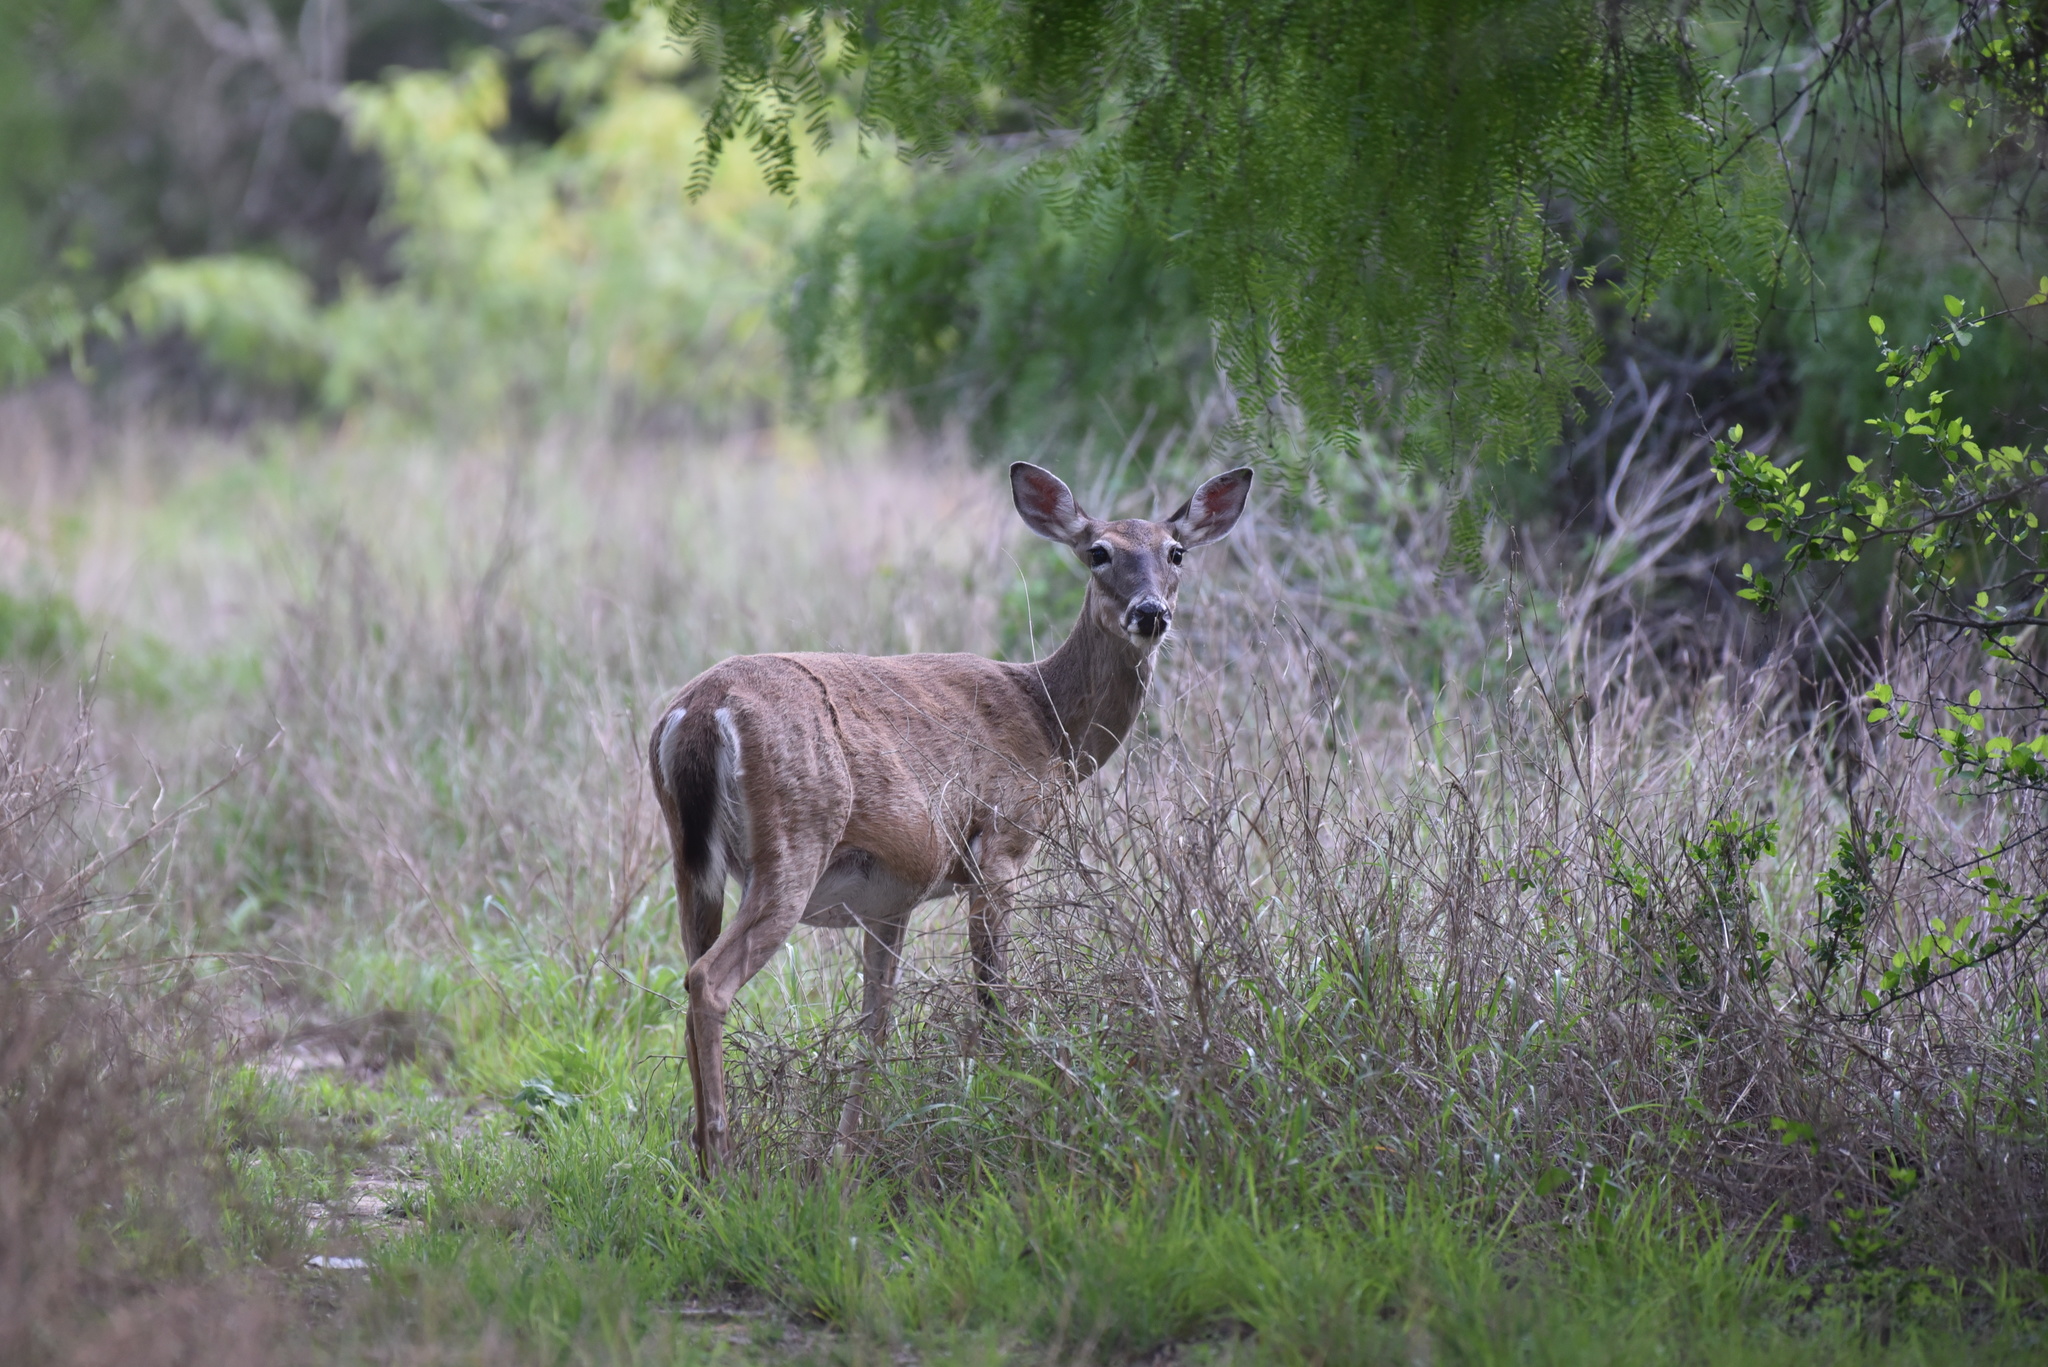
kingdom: Animalia
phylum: Chordata
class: Mammalia
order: Artiodactyla
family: Cervidae
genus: Odocoileus
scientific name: Odocoileus virginianus
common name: White-tailed deer
